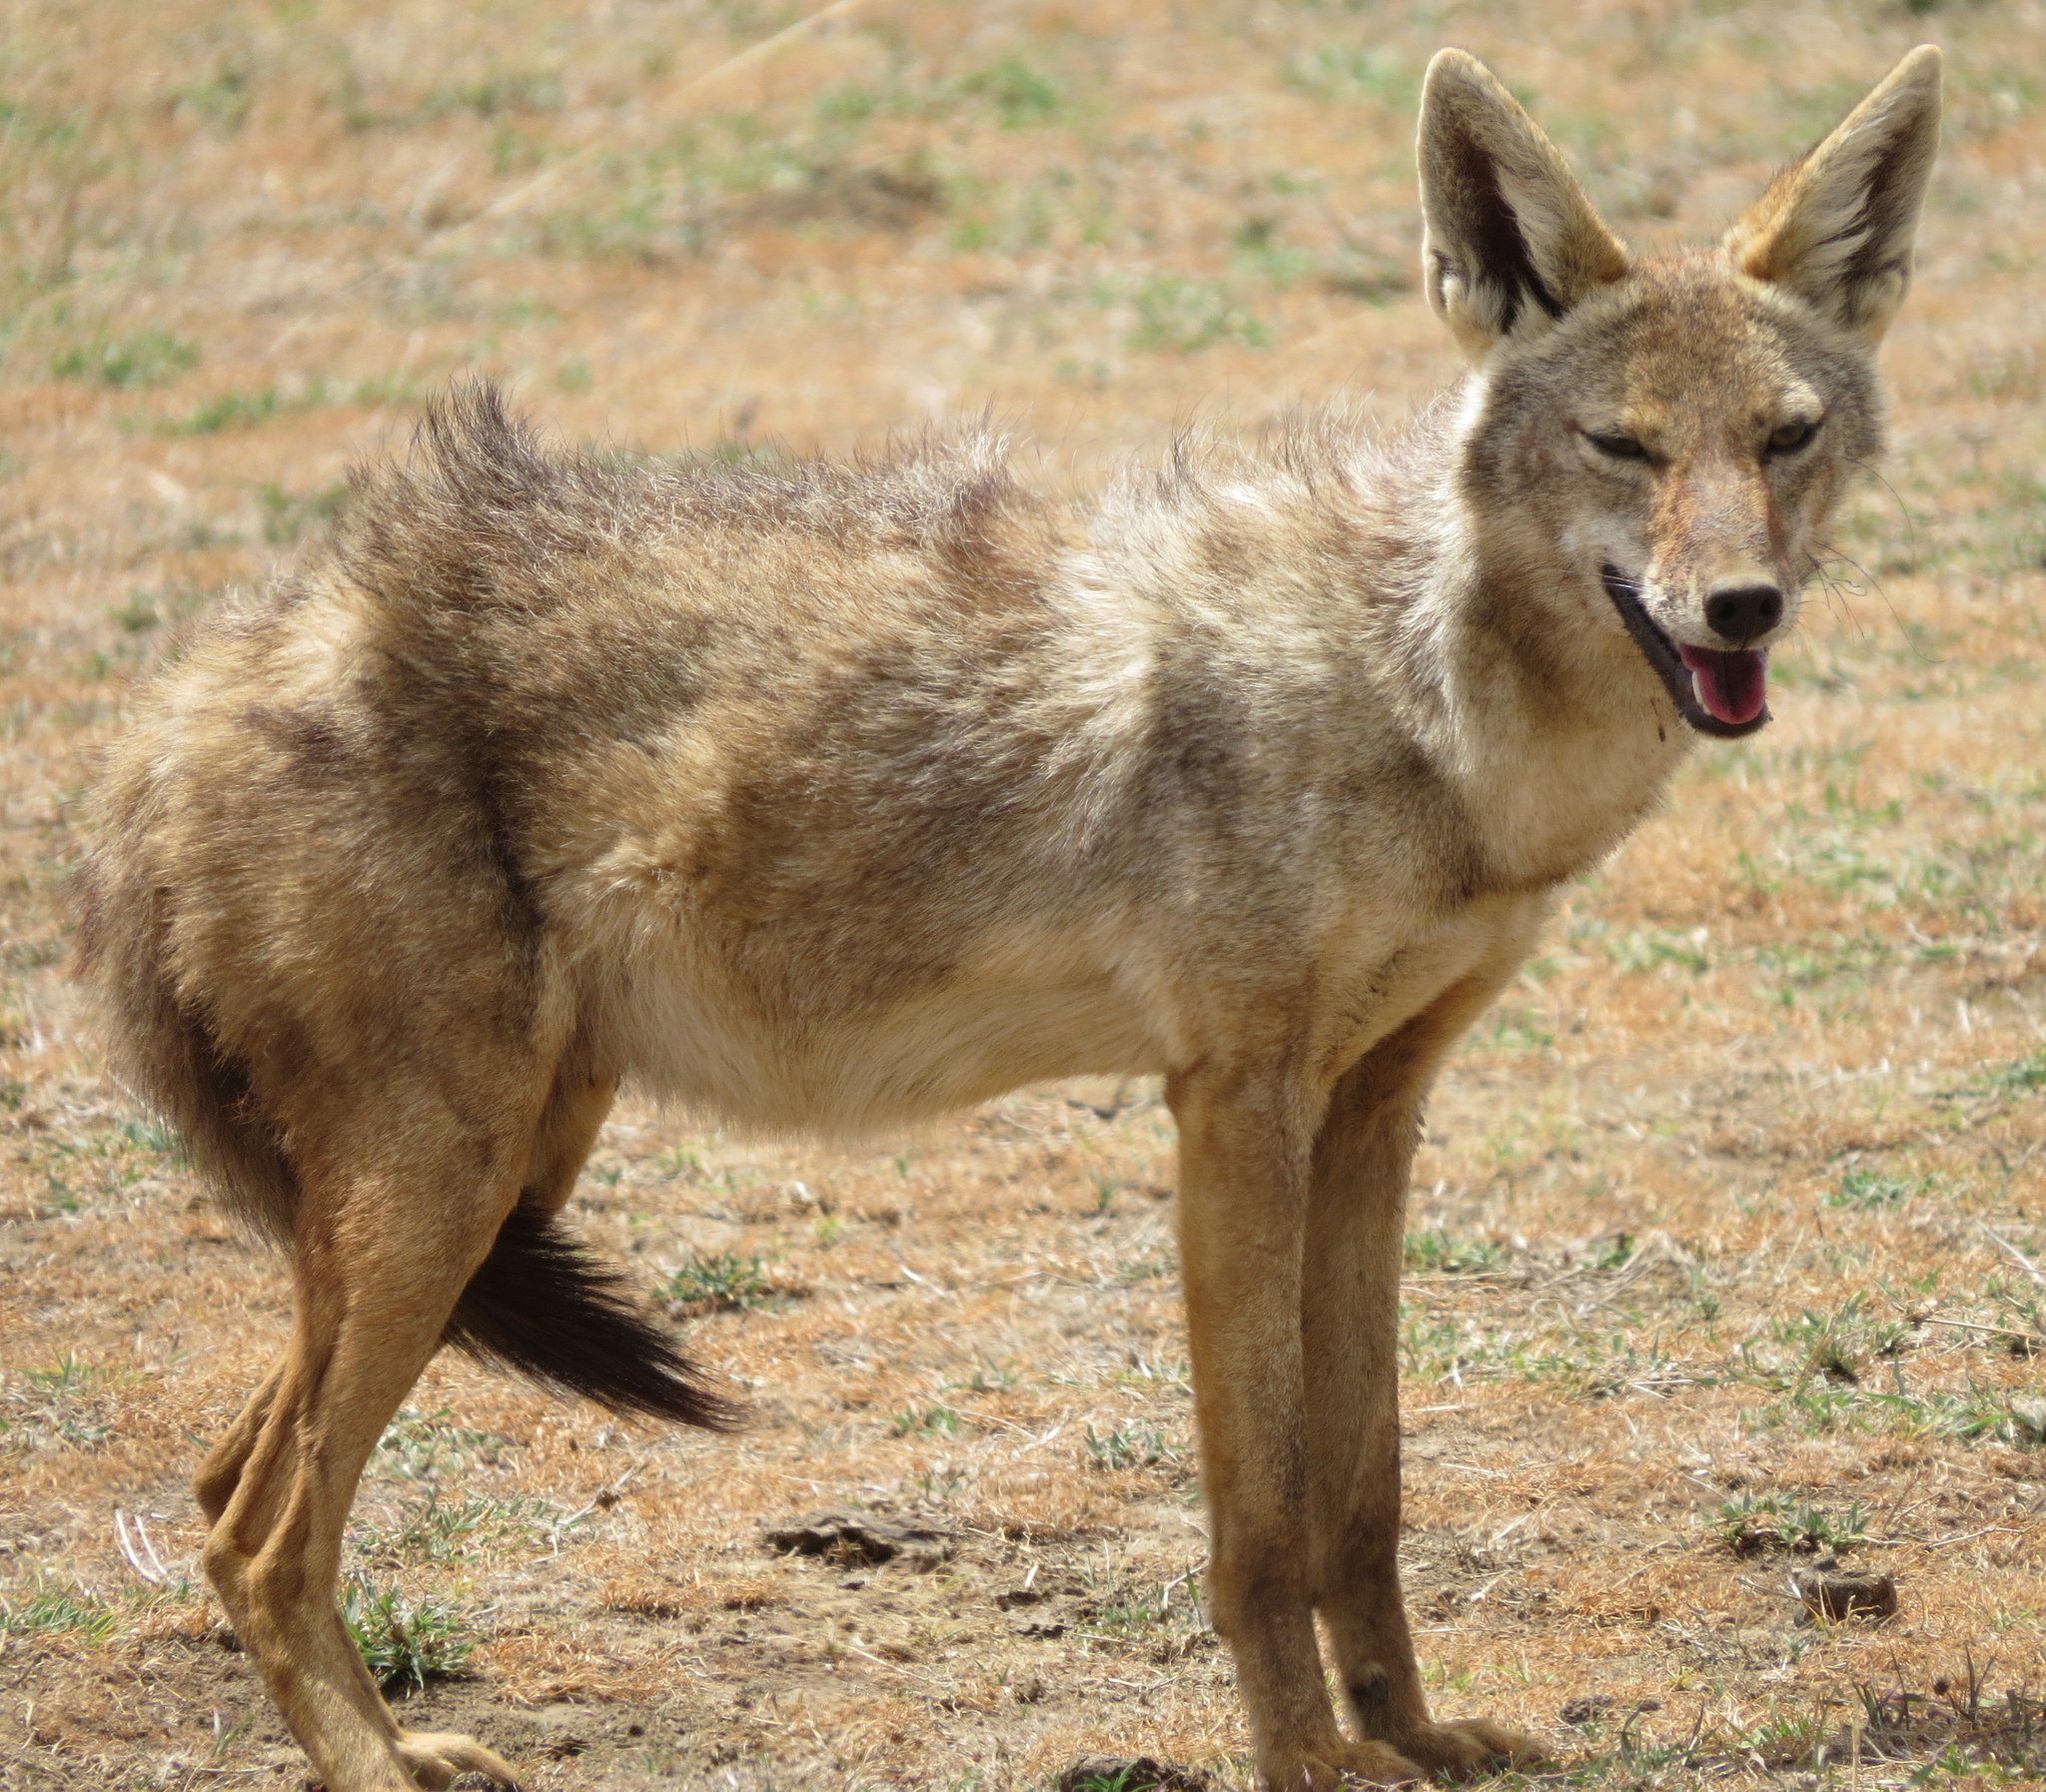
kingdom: Animalia
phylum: Chordata
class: Mammalia
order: Carnivora
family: Canidae
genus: Canis
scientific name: Canis lupaster
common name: African golden wolf
